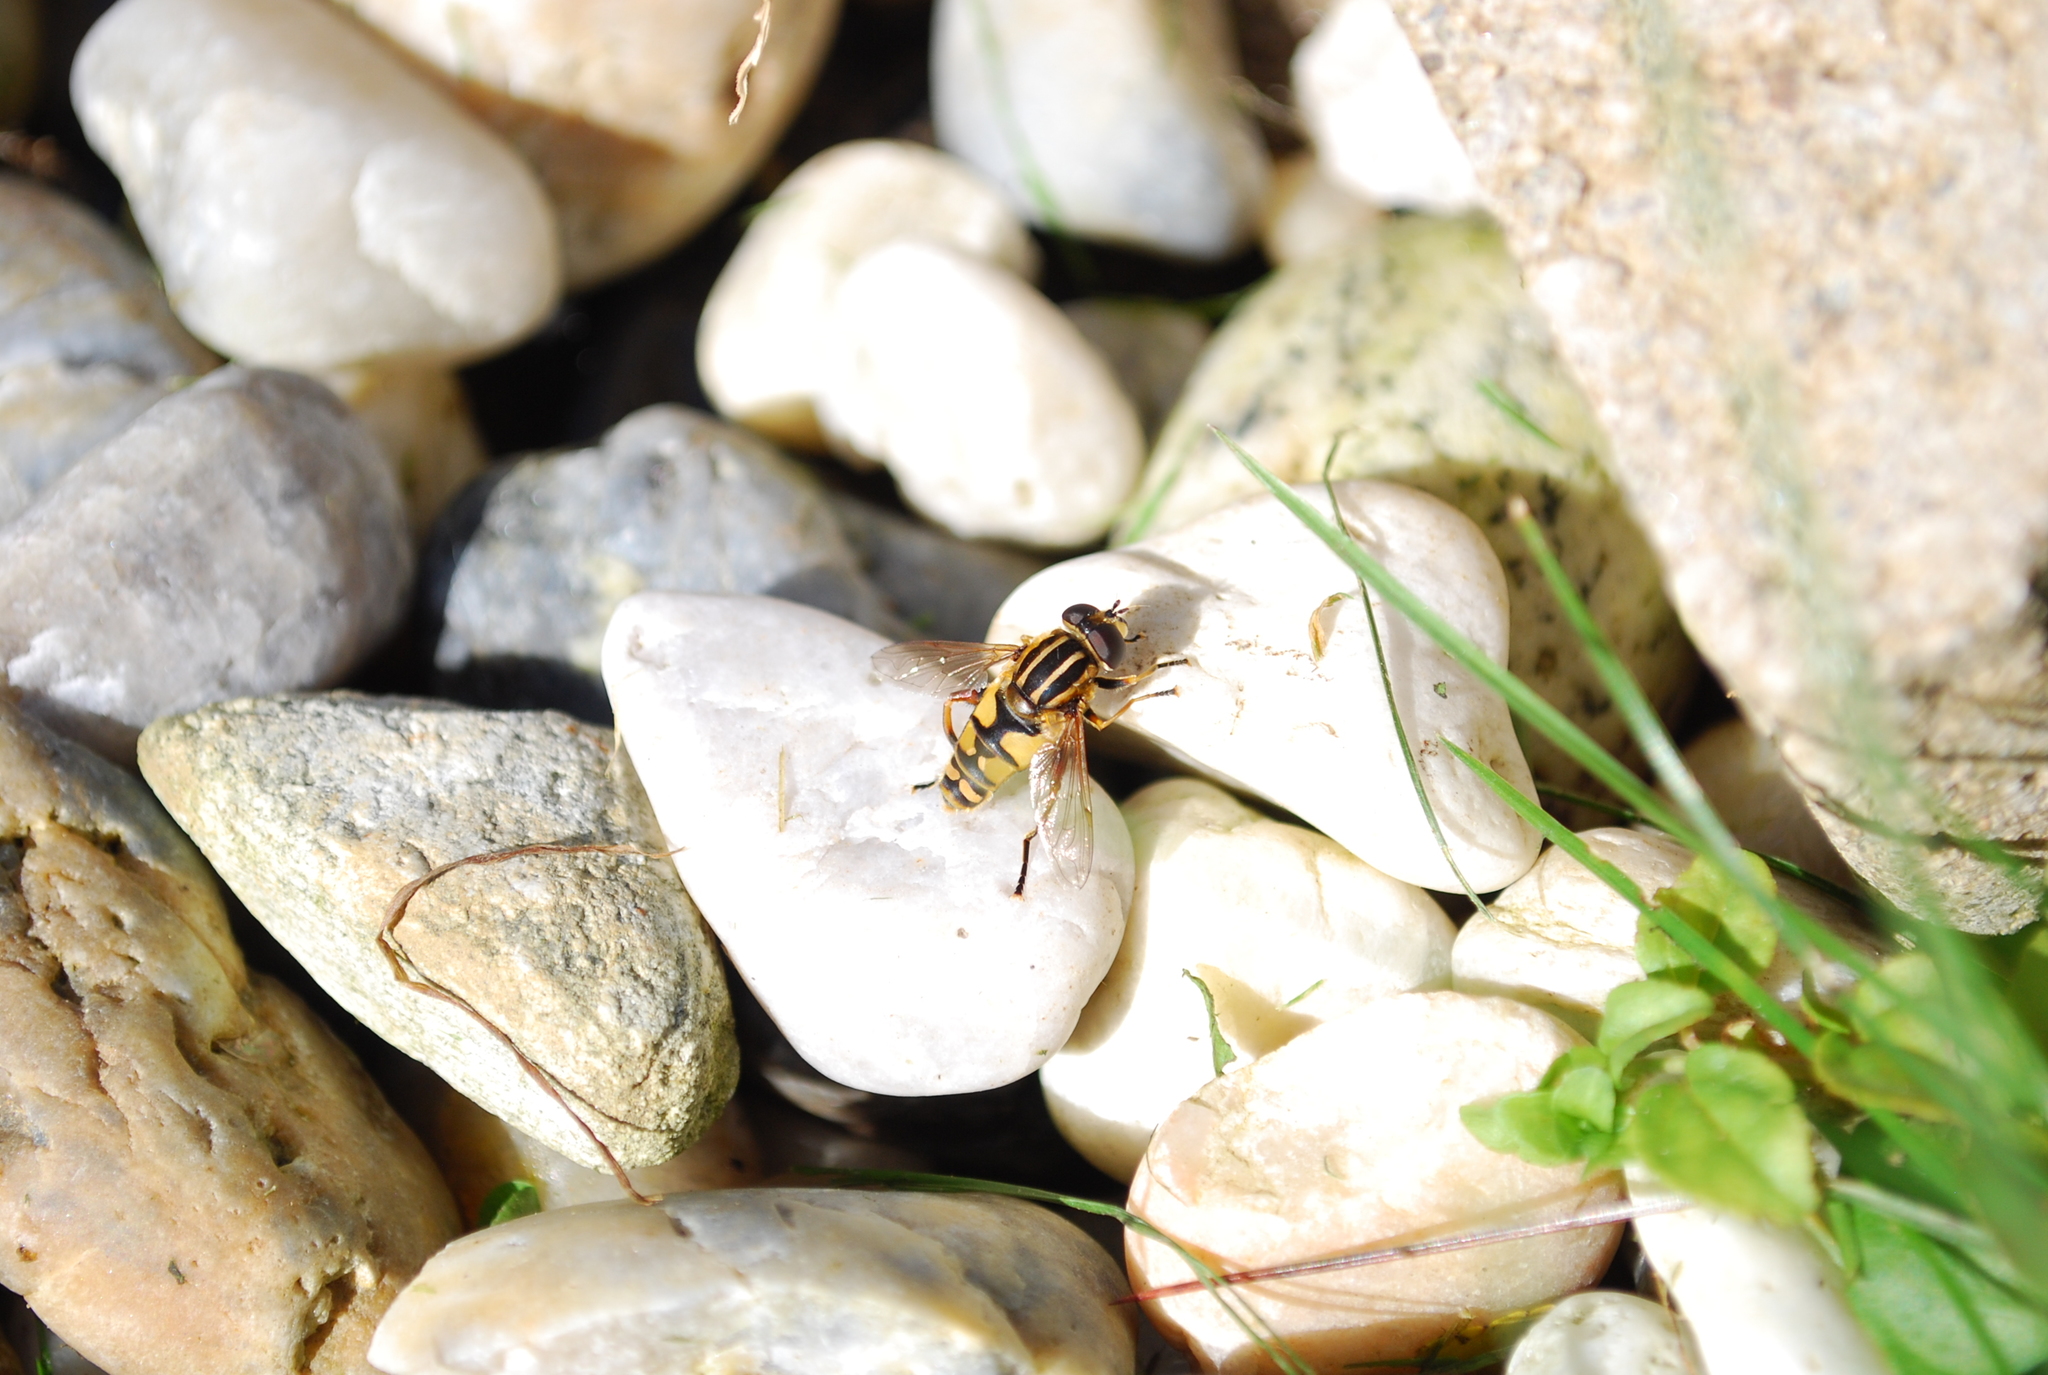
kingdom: Animalia
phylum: Arthropoda
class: Insecta
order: Diptera
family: Syrphidae
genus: Helophilus
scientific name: Helophilus pendulus
